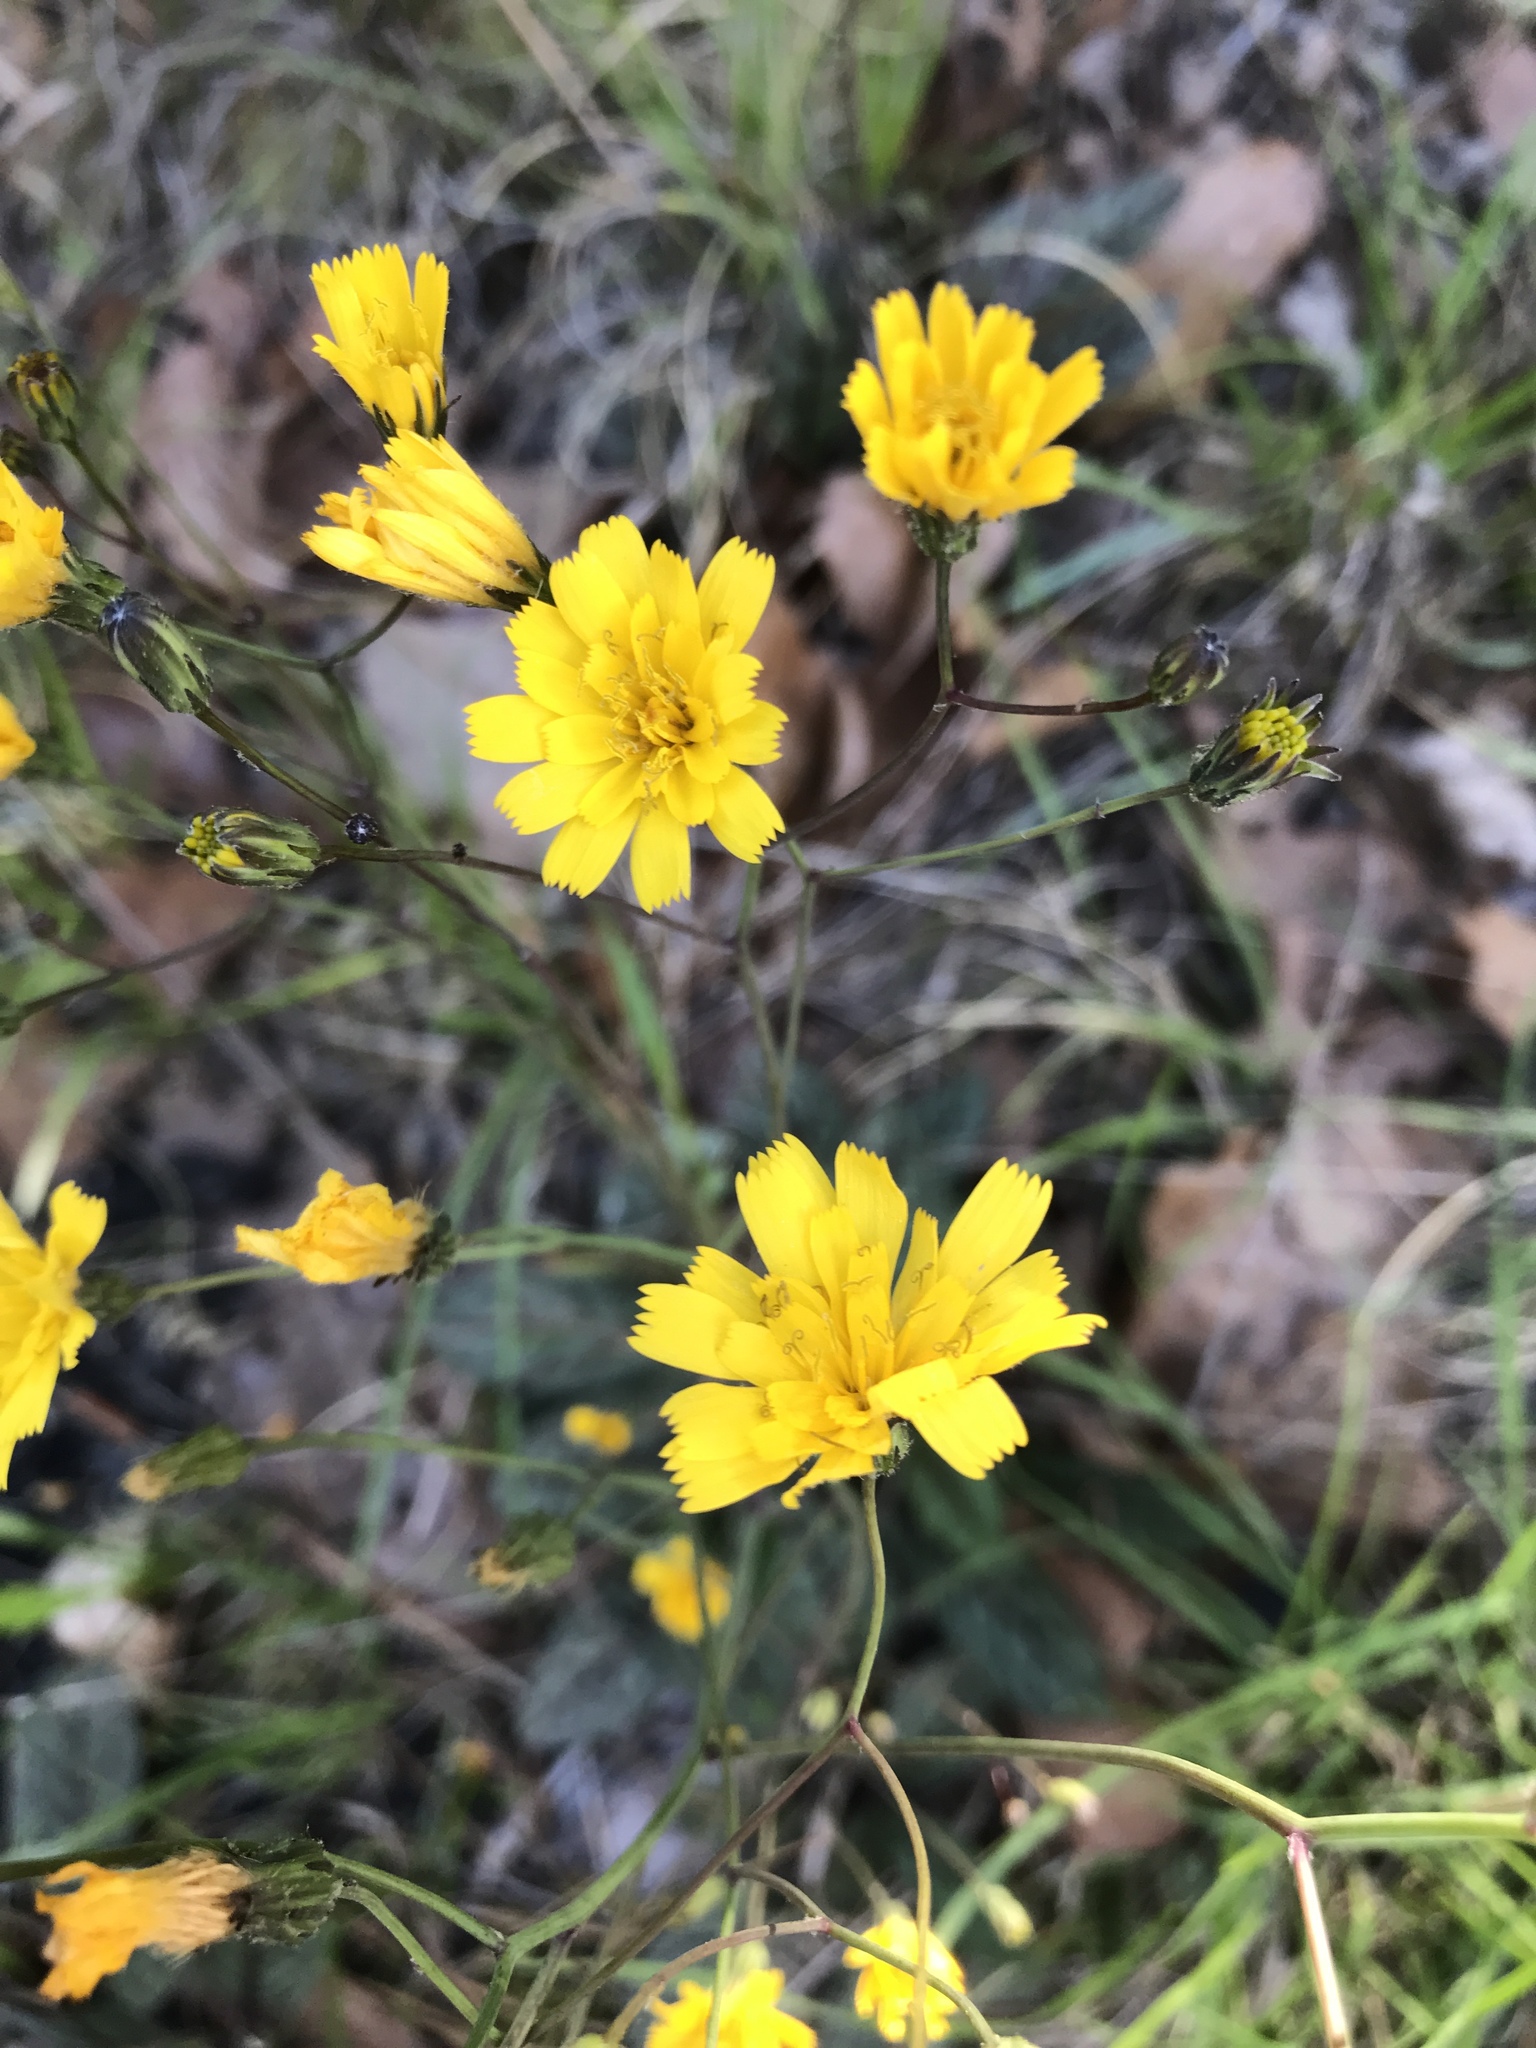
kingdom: Plantae
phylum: Tracheophyta
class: Magnoliopsida
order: Asterales
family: Asteraceae
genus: Hieracium
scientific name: Hieracium venosum
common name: Rattlesnake hawkweed
